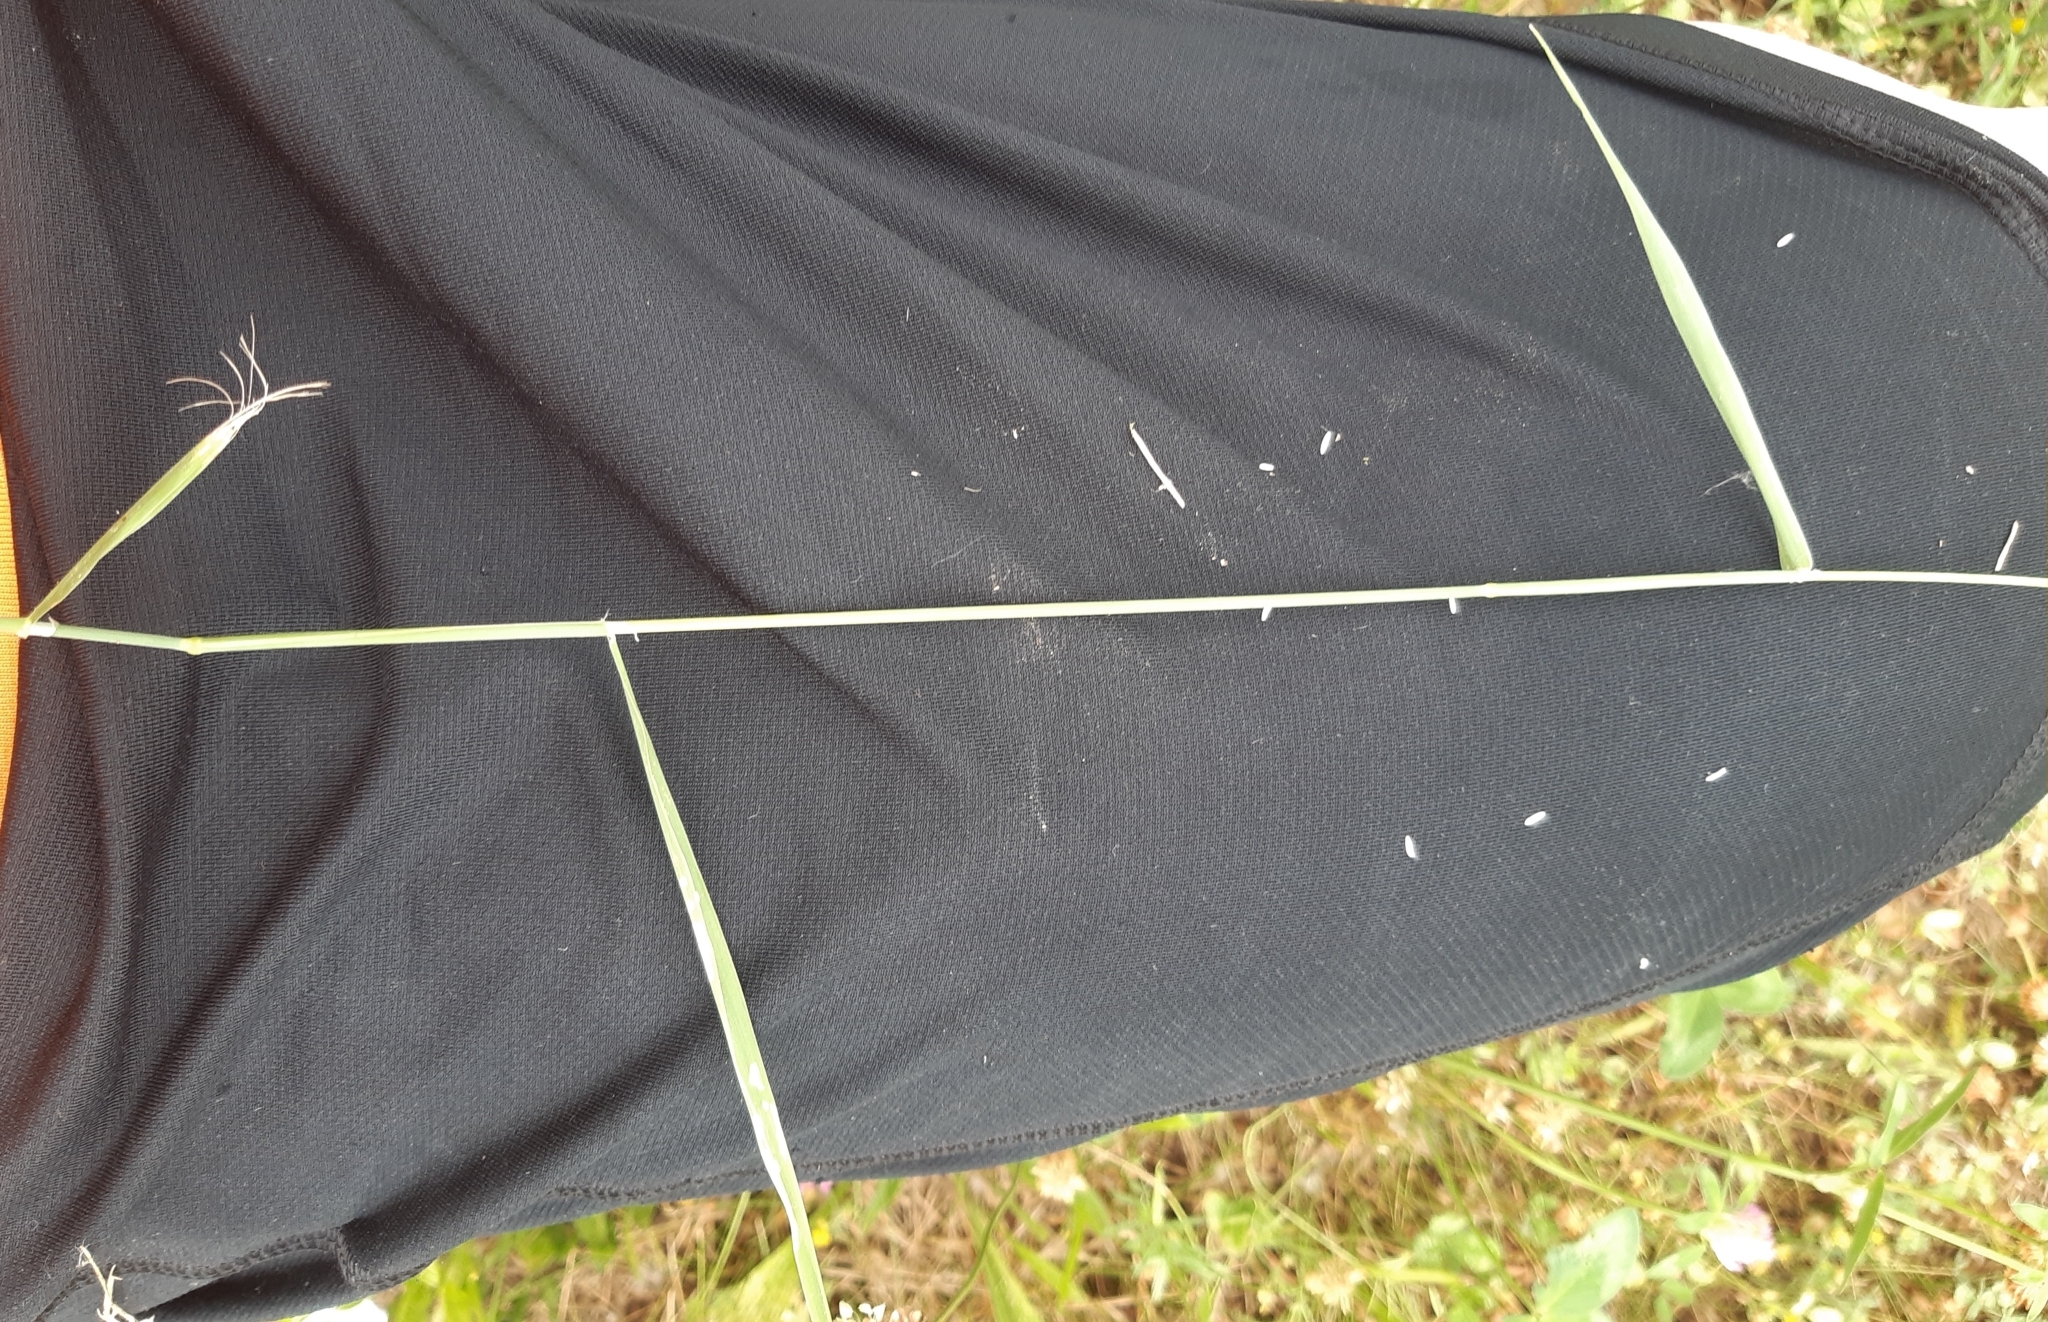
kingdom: Plantae
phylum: Tracheophyta
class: Liliopsida
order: Poales
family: Poaceae
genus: Phalaris
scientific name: Phalaris canariensis
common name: Annual canarygrass
